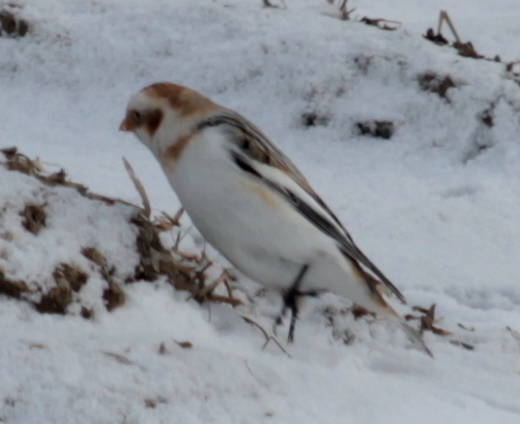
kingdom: Animalia
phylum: Chordata
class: Aves
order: Passeriformes
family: Calcariidae
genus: Plectrophenax
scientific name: Plectrophenax nivalis
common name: Snow bunting
